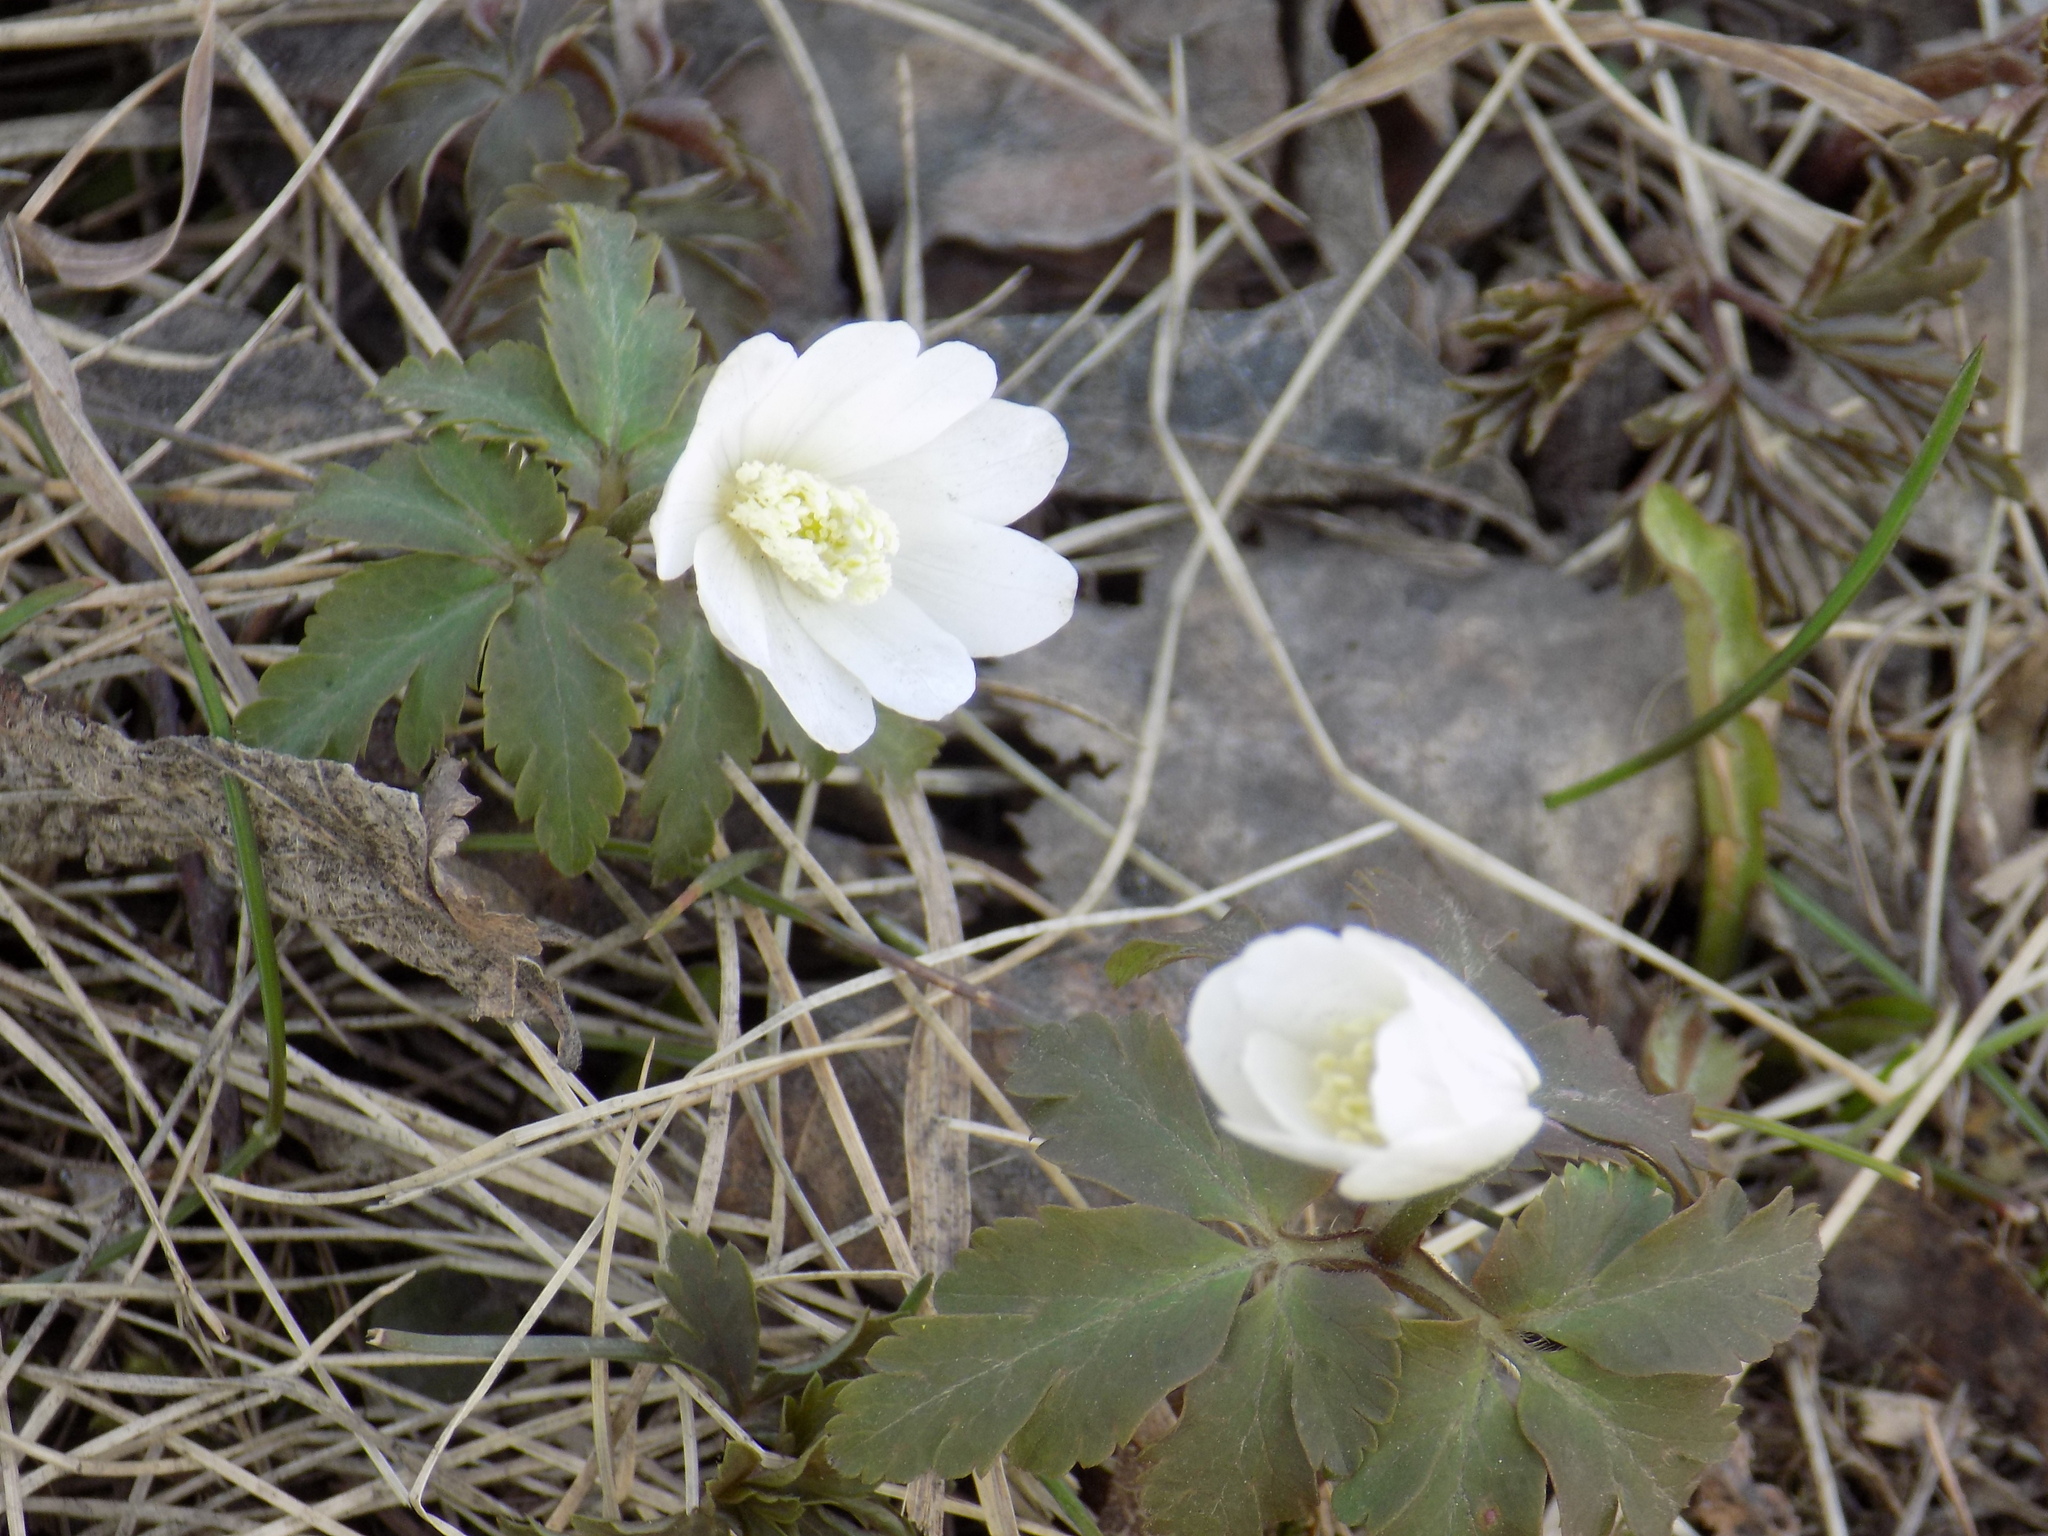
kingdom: Plantae
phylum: Tracheophyta
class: Magnoliopsida
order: Ranunculales
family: Ranunculaceae
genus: Anemone
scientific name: Anemone altaica
